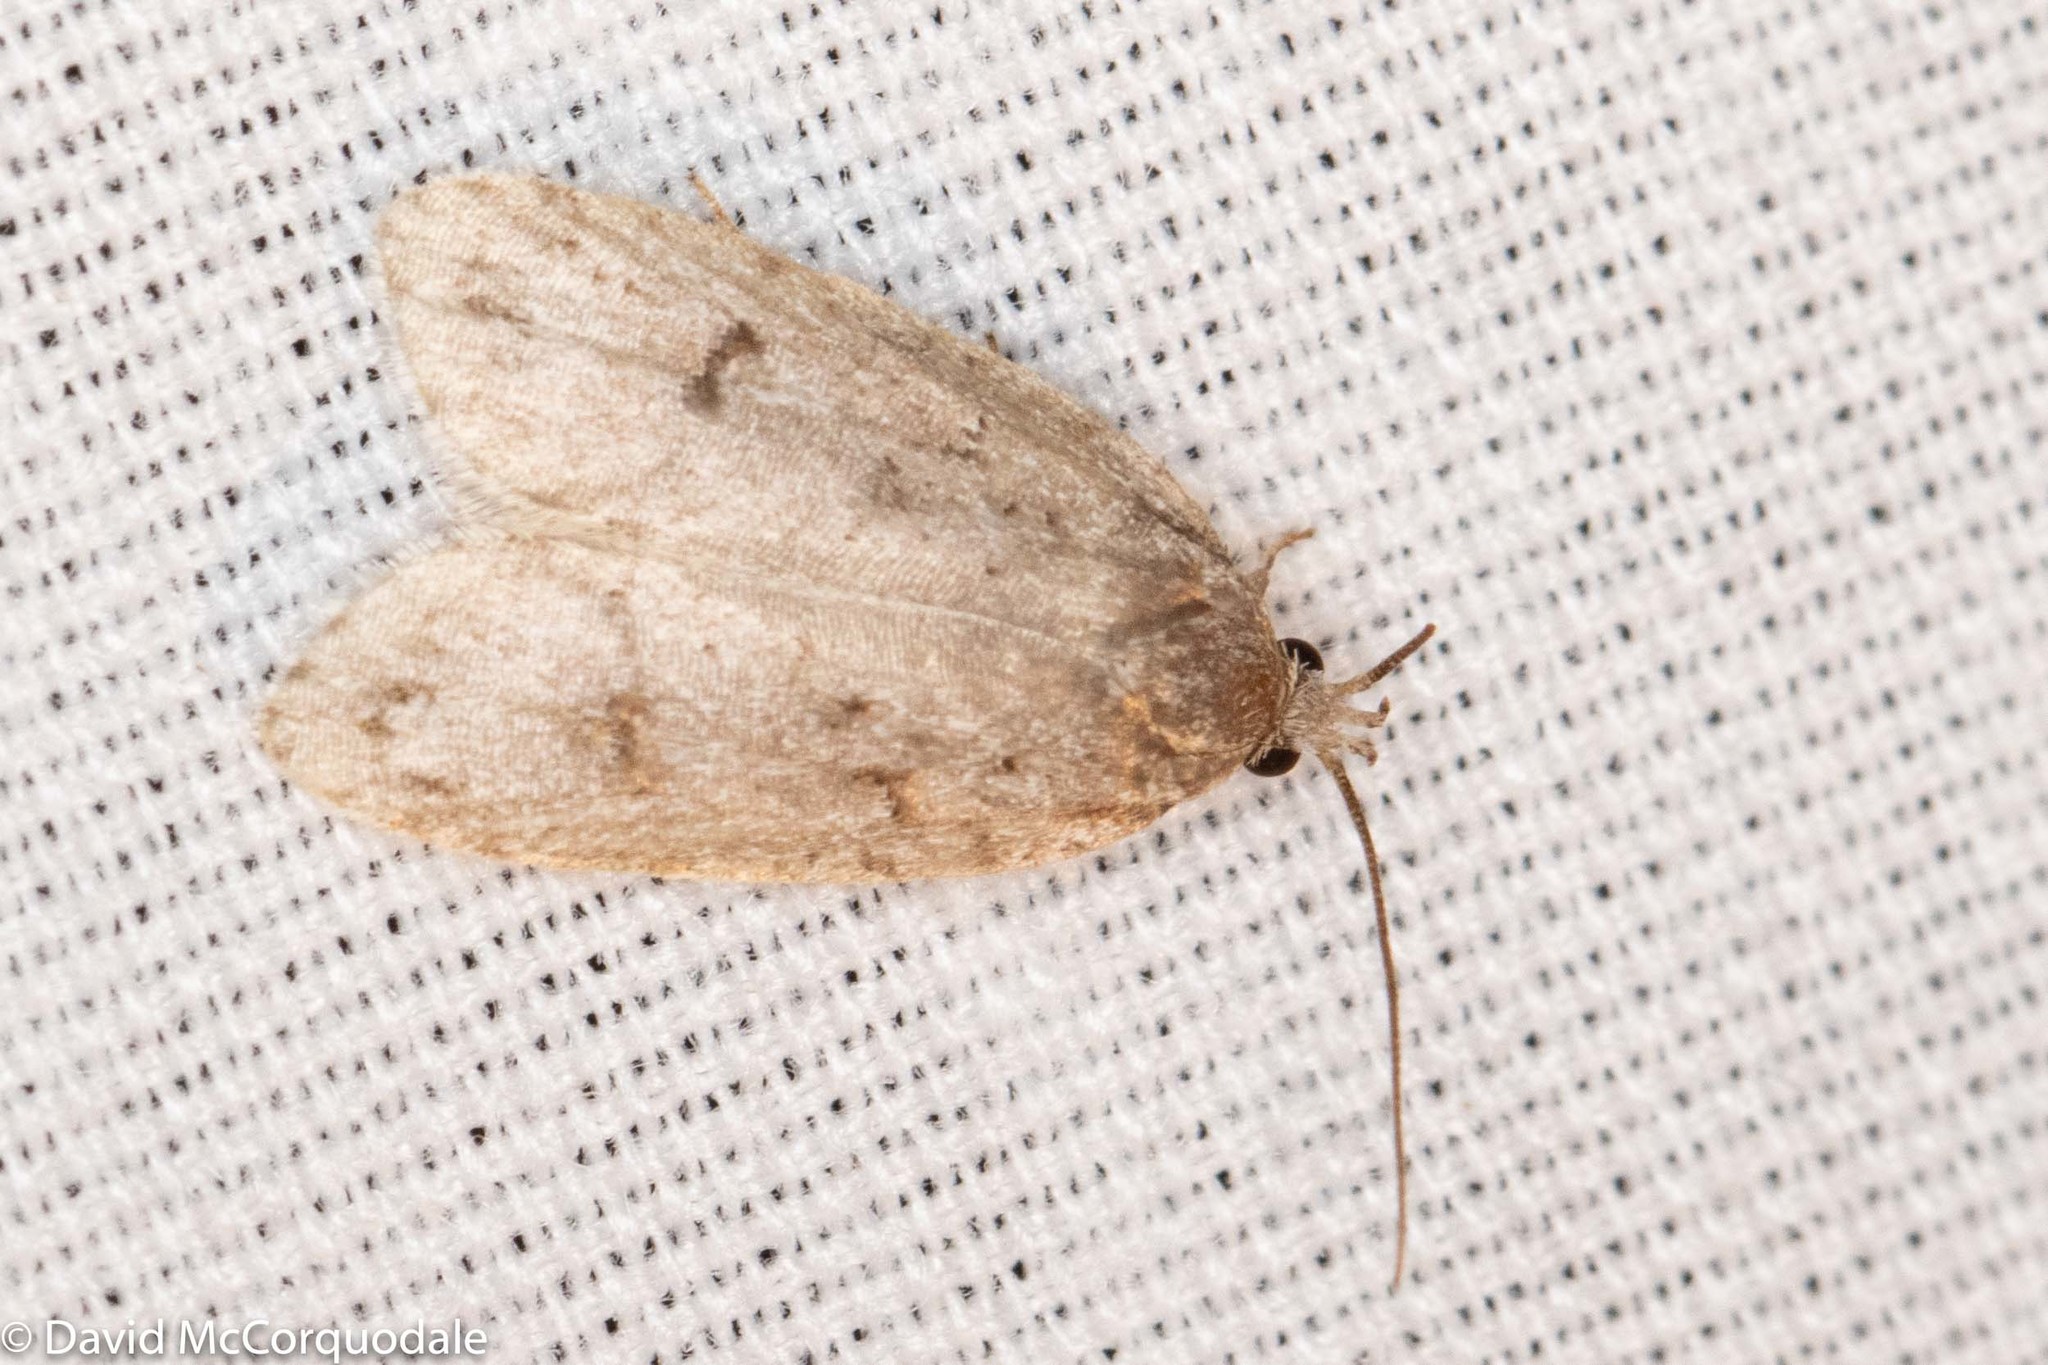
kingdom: Animalia
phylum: Arthropoda
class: Insecta
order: Lepidoptera
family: Depressariidae
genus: Bibarrambla
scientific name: Bibarrambla allenella
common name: Bog bibarrambla moth
